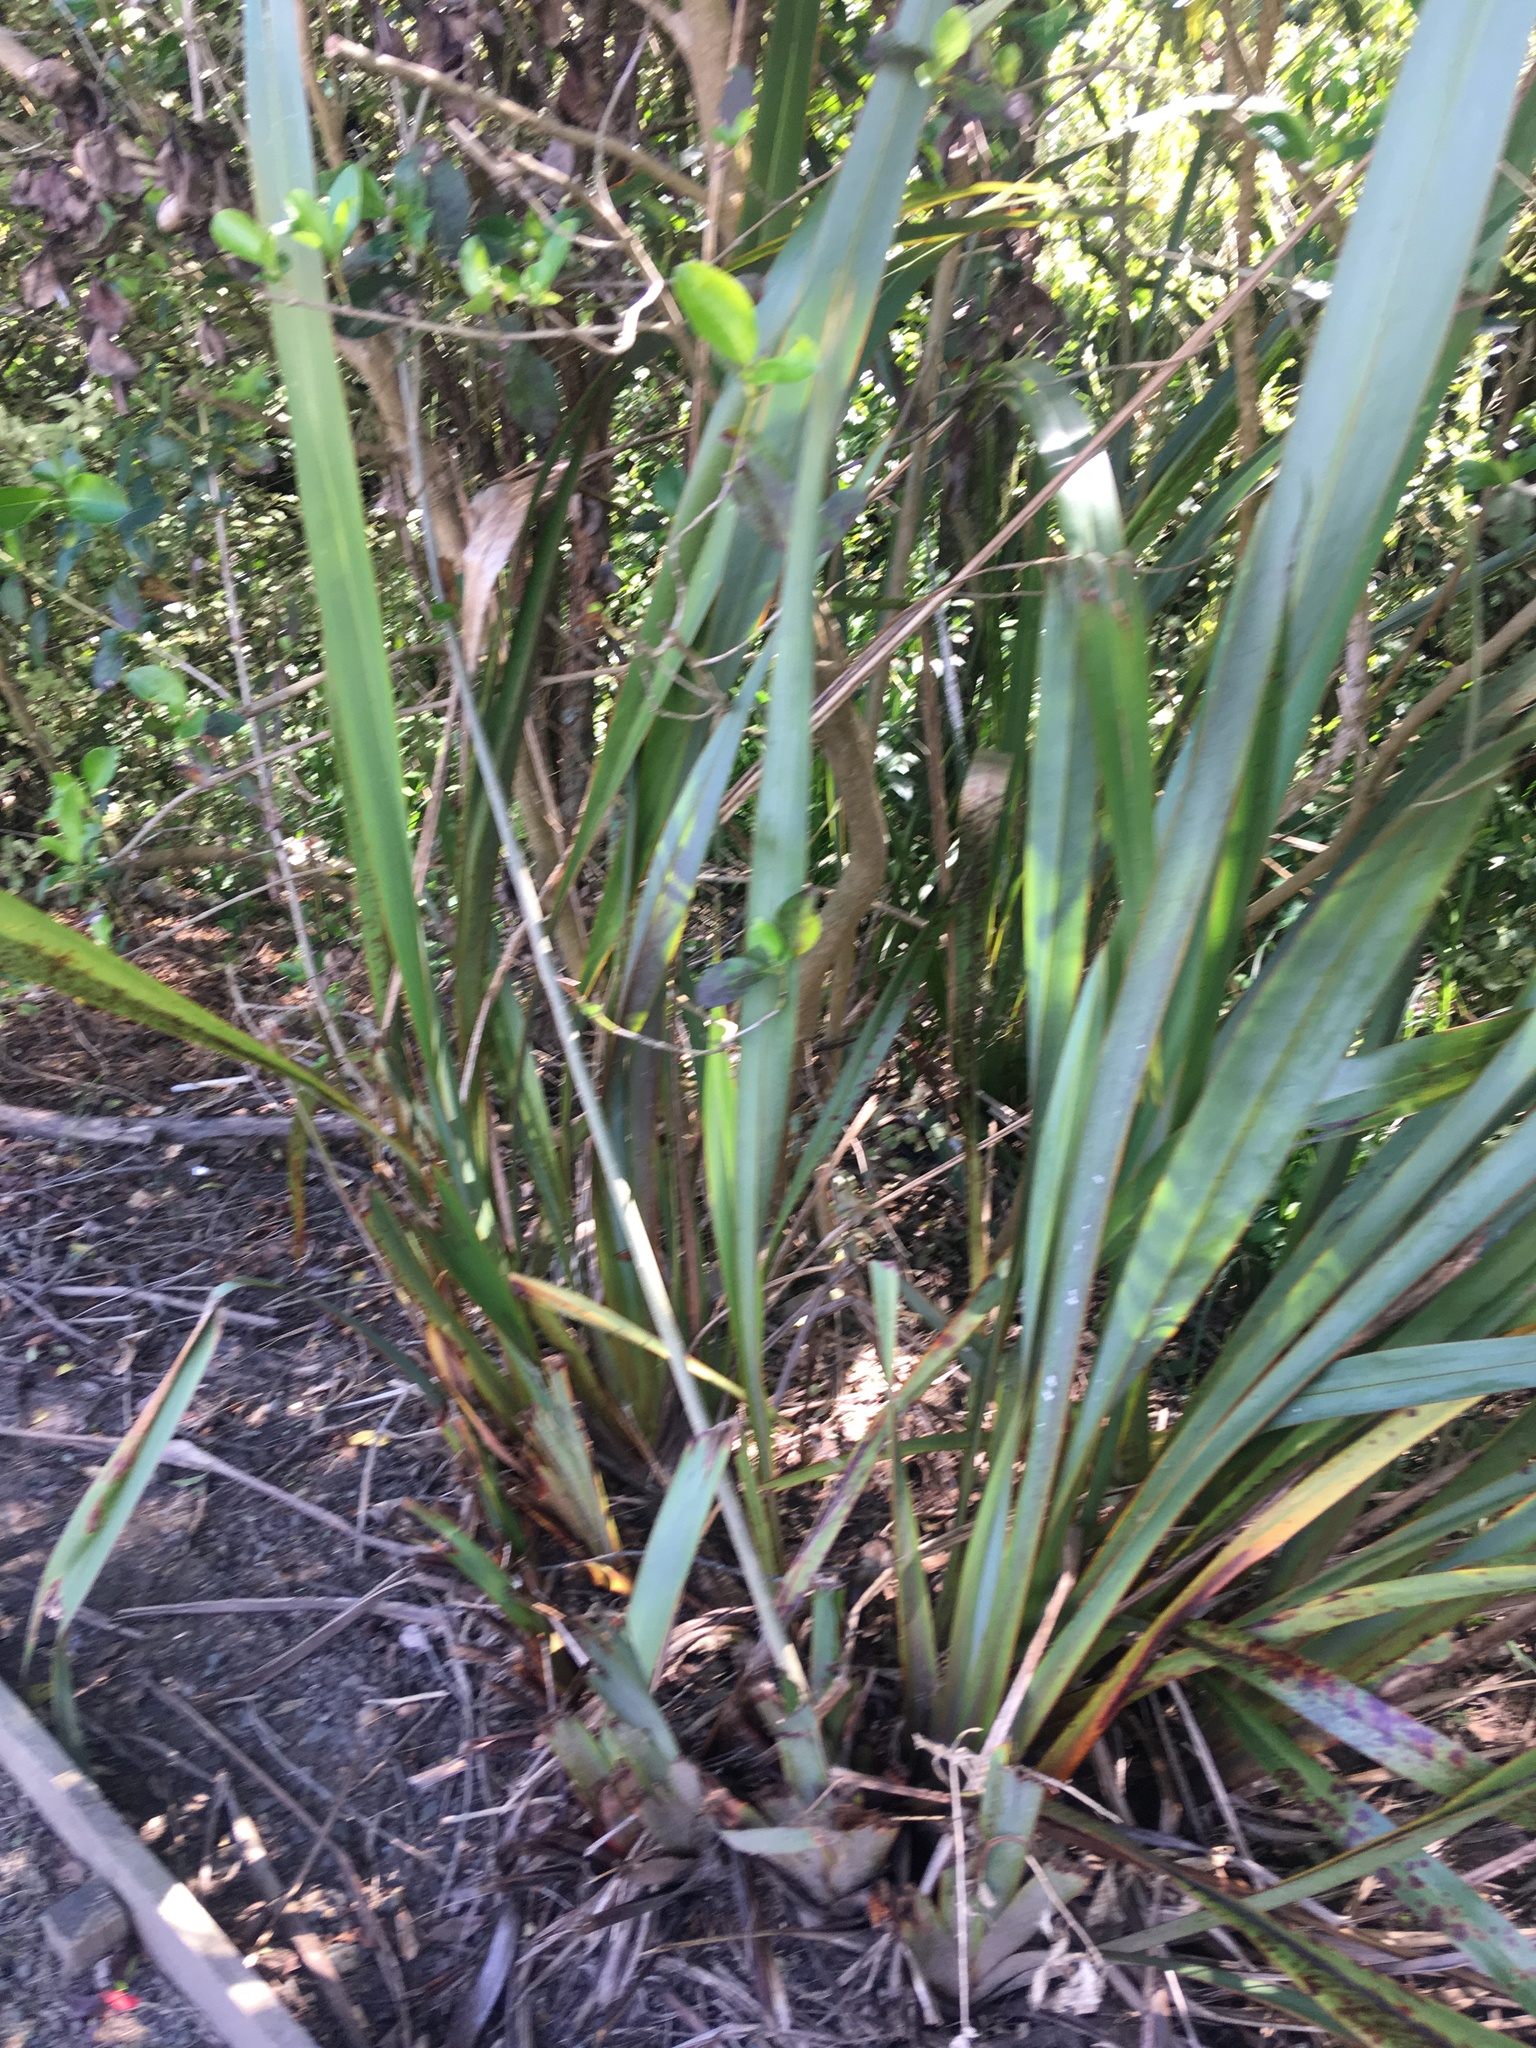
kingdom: Plantae
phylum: Tracheophyta
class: Liliopsida
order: Asparagales
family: Asphodelaceae
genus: Phormium
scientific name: Phormium tenax
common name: New zealand flax
